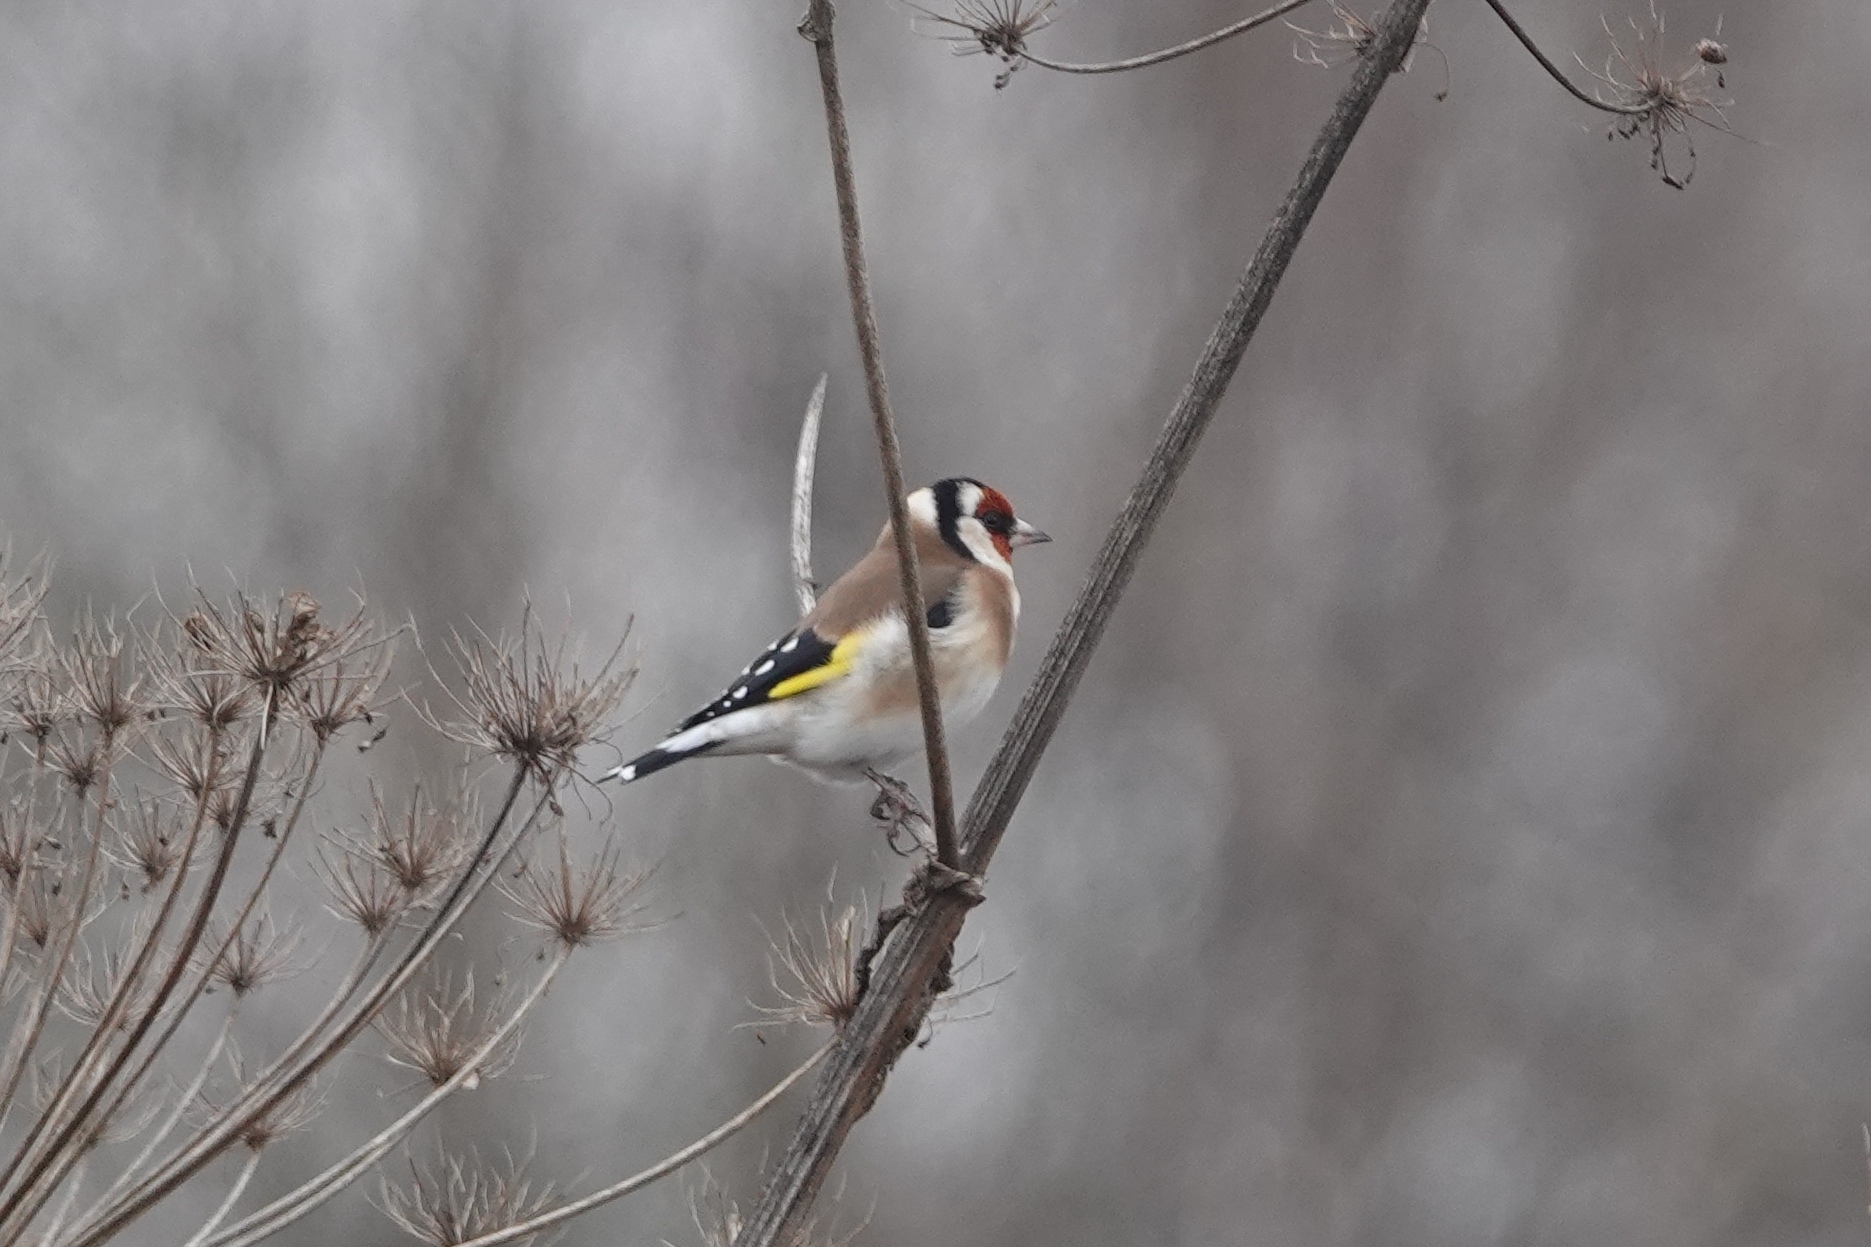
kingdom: Animalia
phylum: Chordata
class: Aves
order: Passeriformes
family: Fringillidae
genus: Carduelis
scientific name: Carduelis carduelis
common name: European goldfinch
